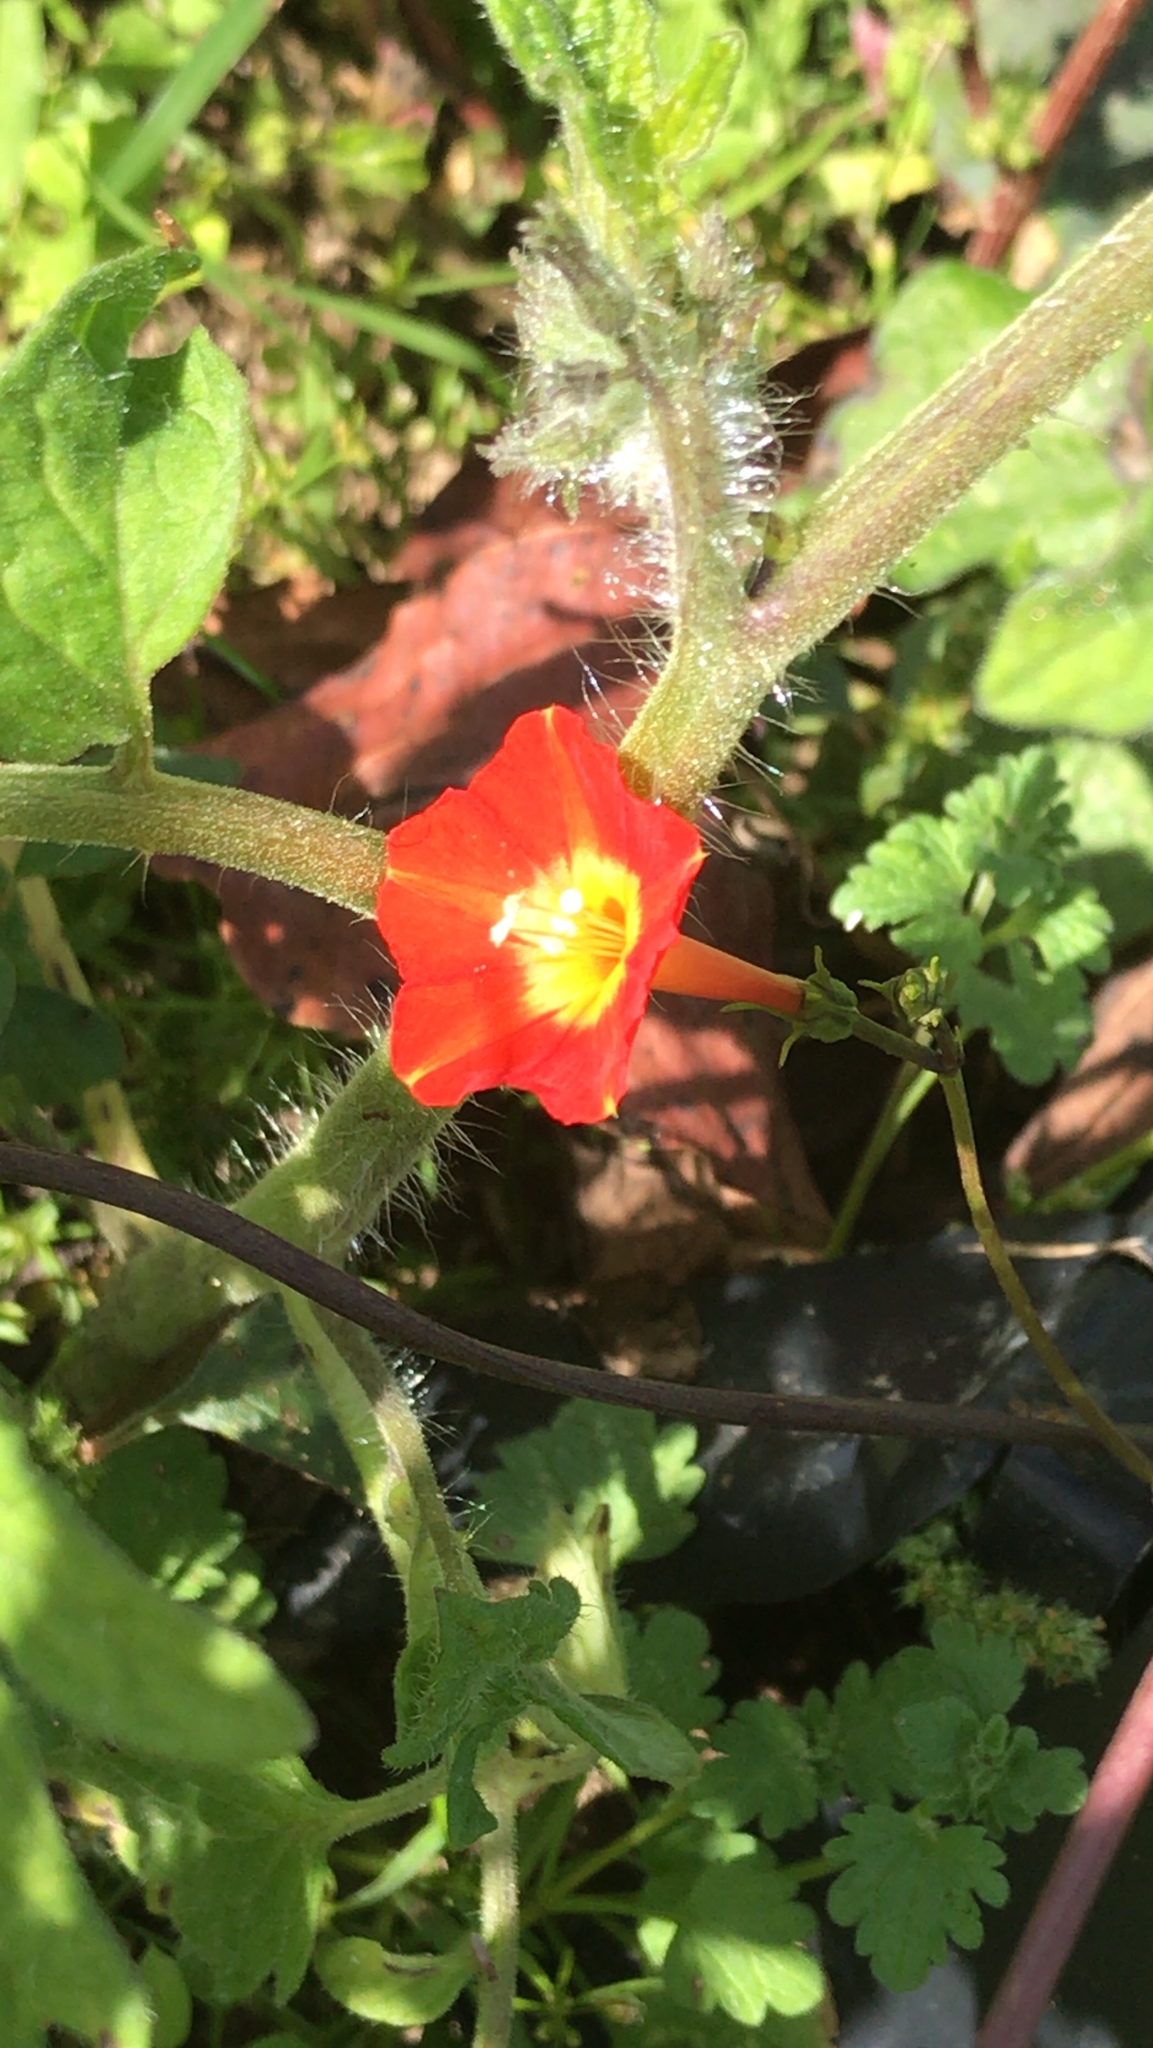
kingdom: Plantae
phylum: Tracheophyta
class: Magnoliopsida
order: Solanales
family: Convolvulaceae
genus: Ipomoea
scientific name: Ipomoea coccinea
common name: Red morning-glory
